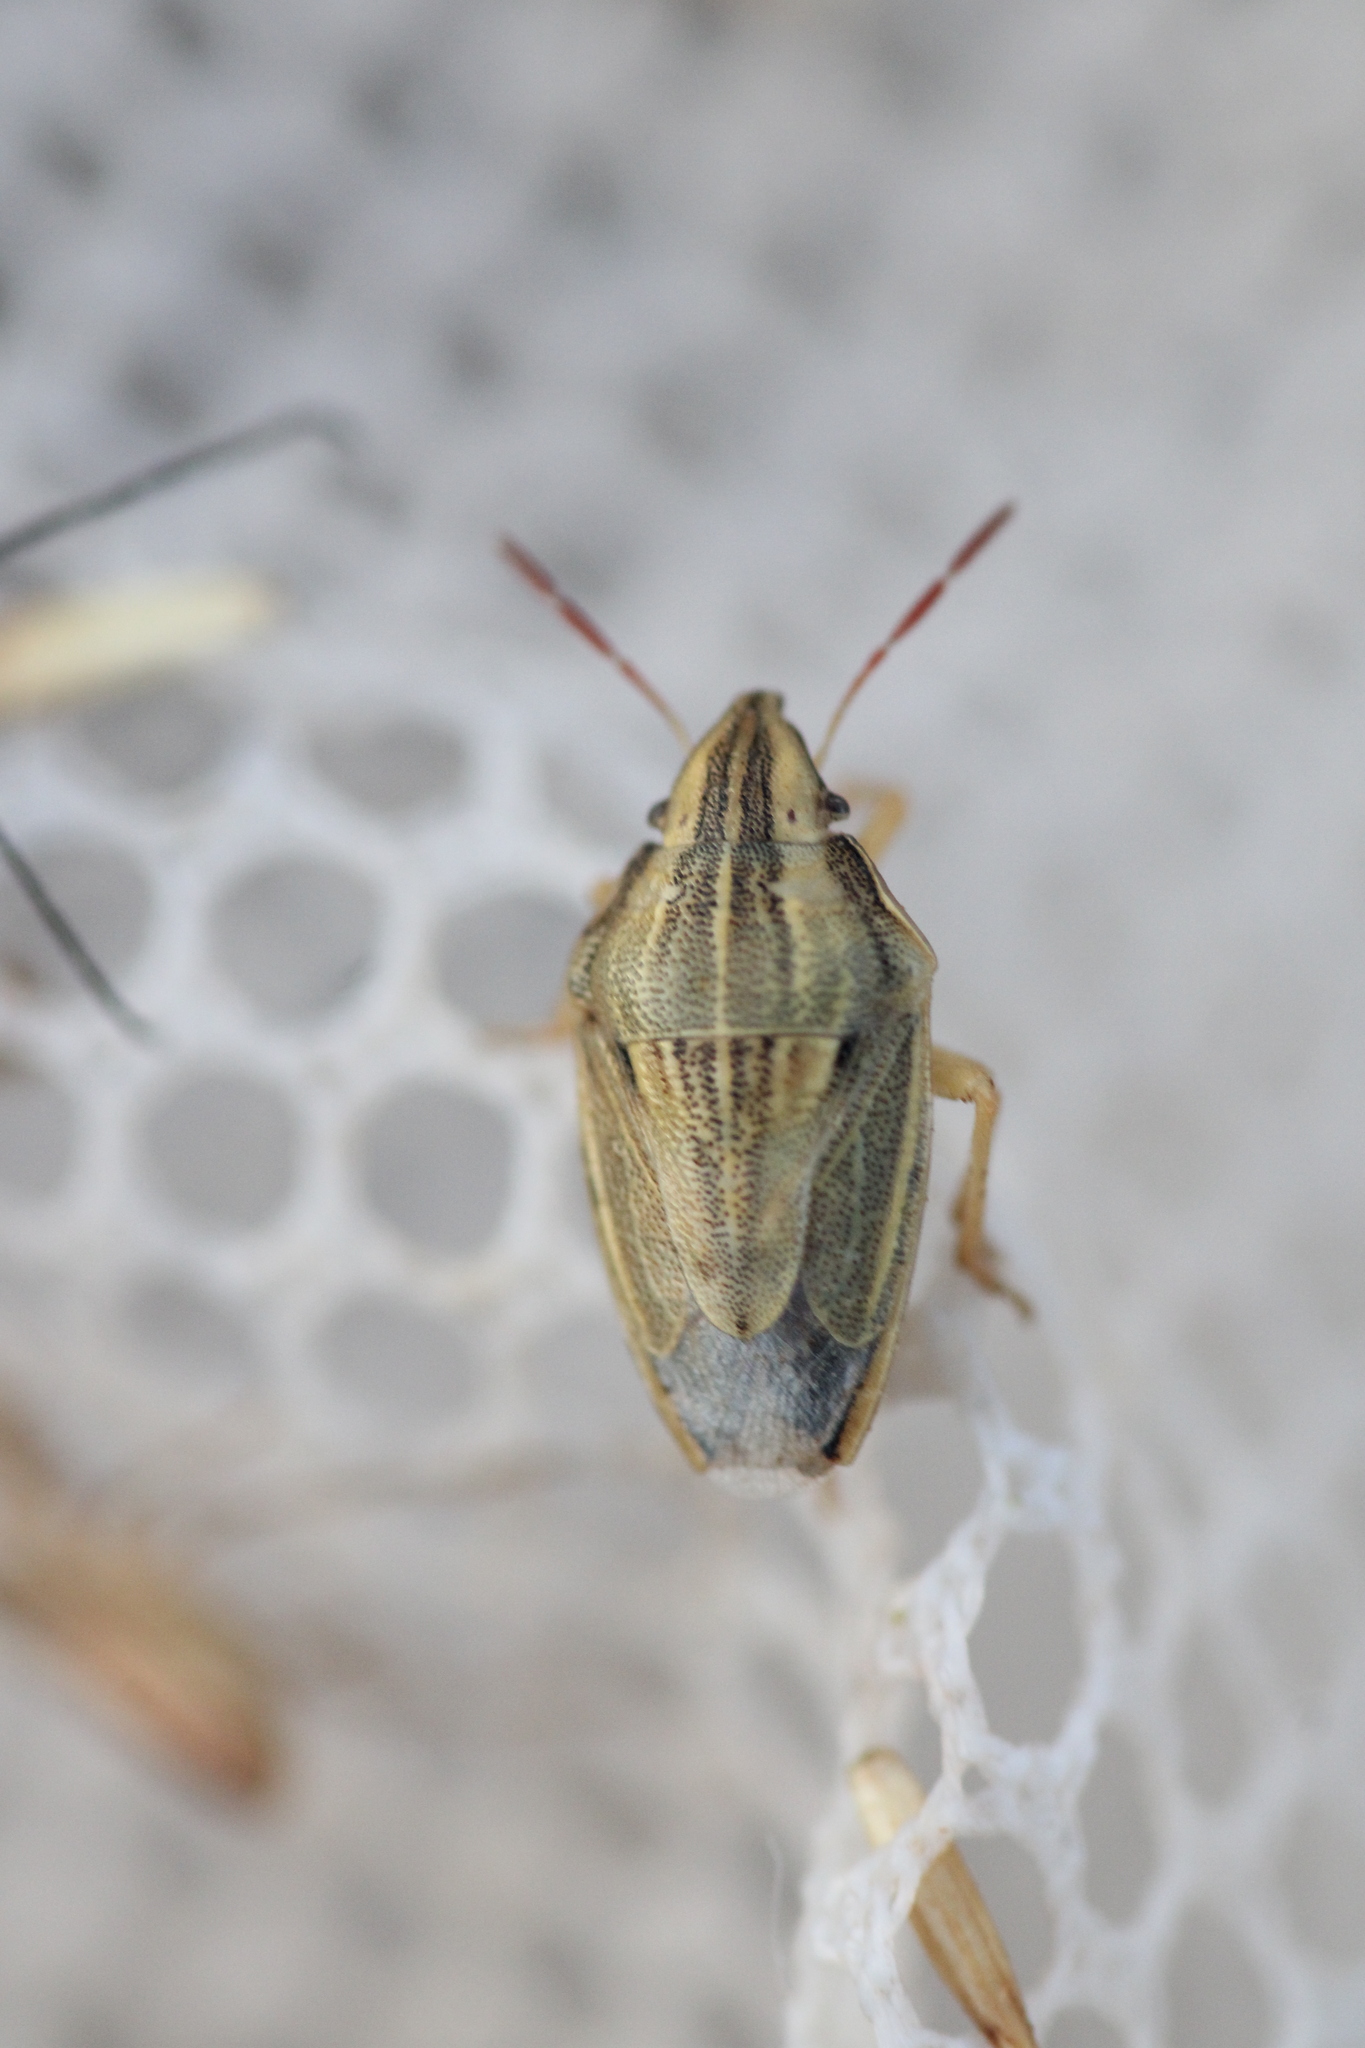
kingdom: Animalia
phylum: Arthropoda
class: Insecta
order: Hemiptera
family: Pentatomidae
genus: Aelia
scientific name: Aelia acuminata
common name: Bishop's mitre
